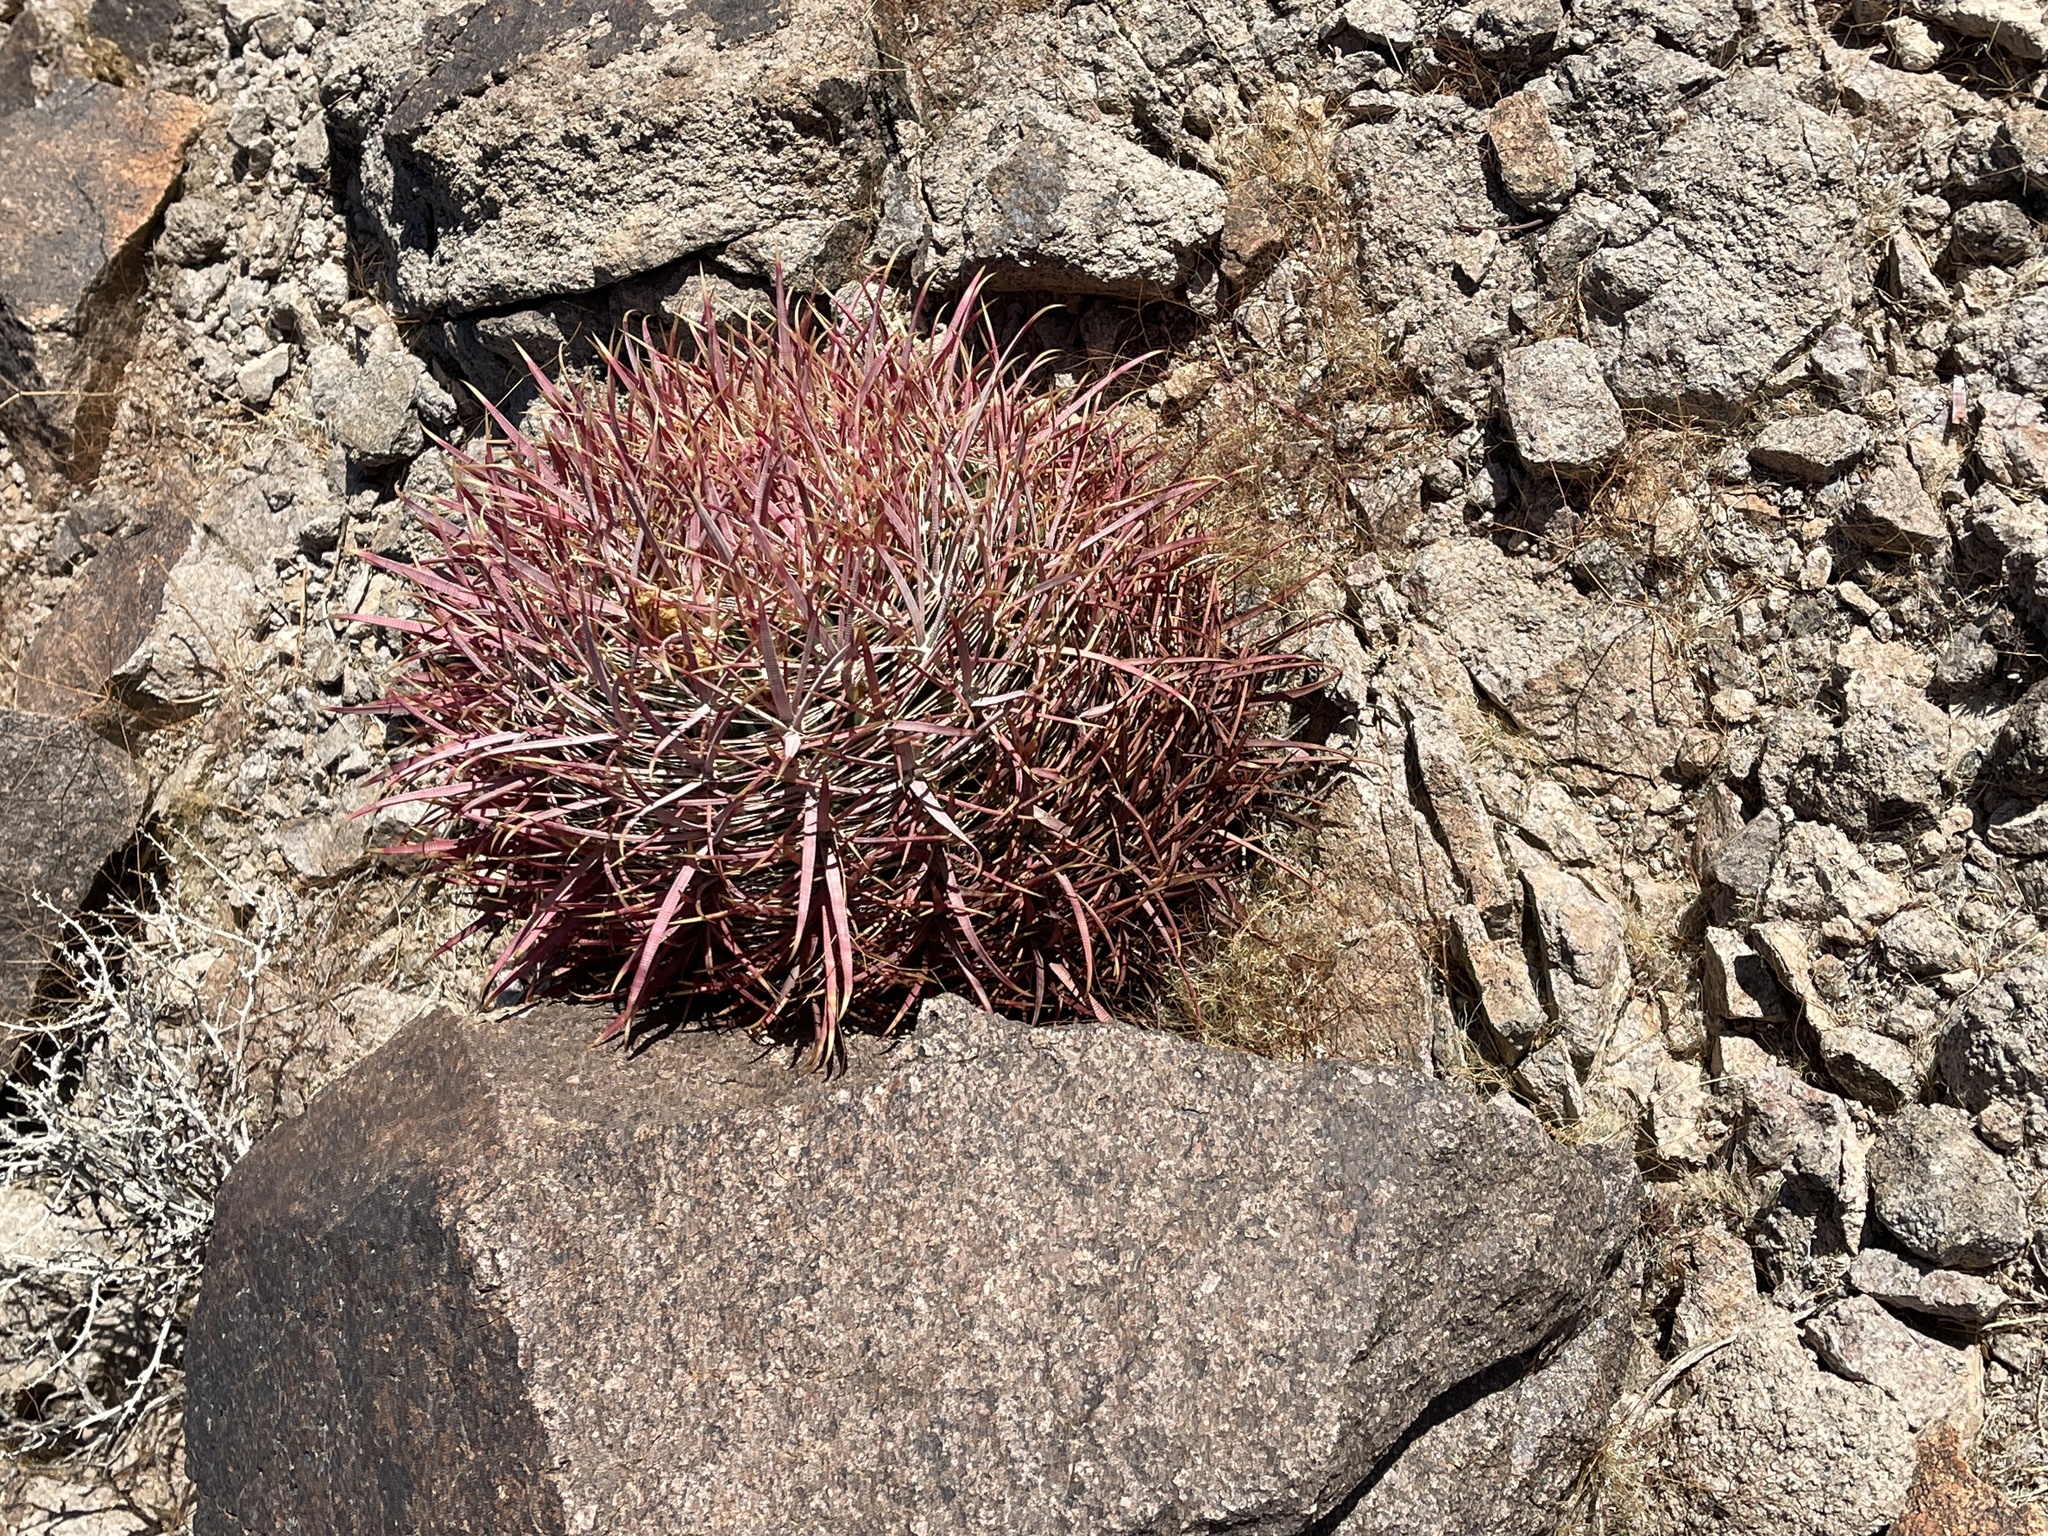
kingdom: Plantae
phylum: Tracheophyta
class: Magnoliopsida
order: Caryophyllales
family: Cactaceae
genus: Ferocactus
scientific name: Ferocactus cylindraceus
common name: California barrel cactus
